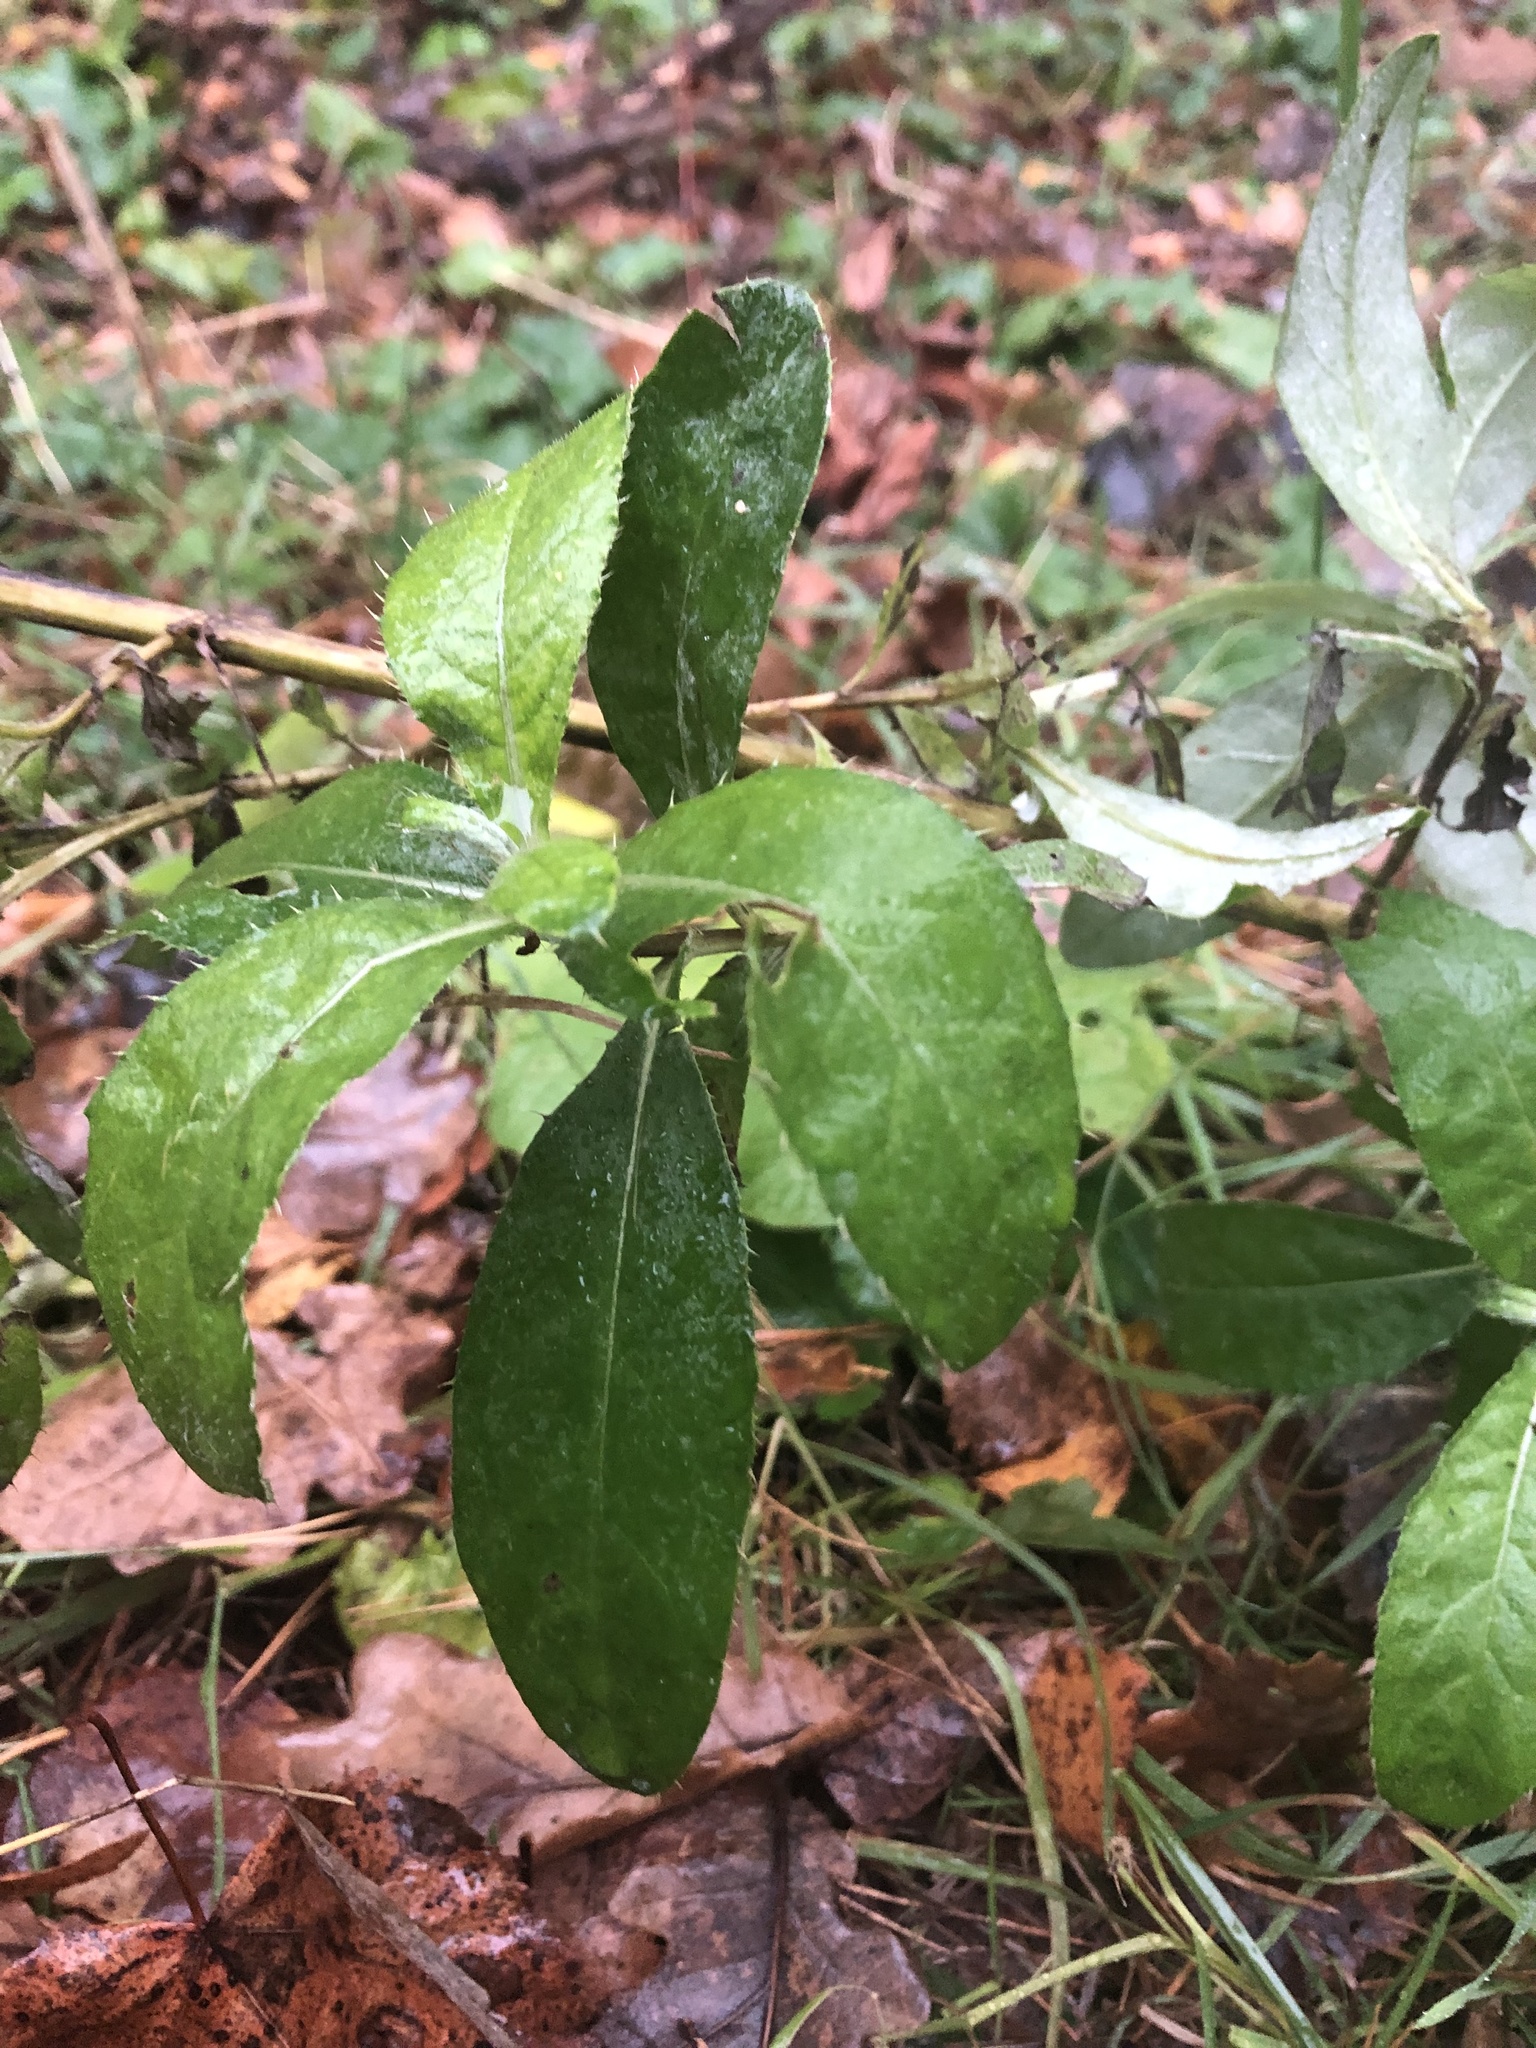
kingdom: Plantae
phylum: Tracheophyta
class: Magnoliopsida
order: Asterales
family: Asteraceae
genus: Cirsium
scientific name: Cirsium arvense
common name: Creeping thistle
